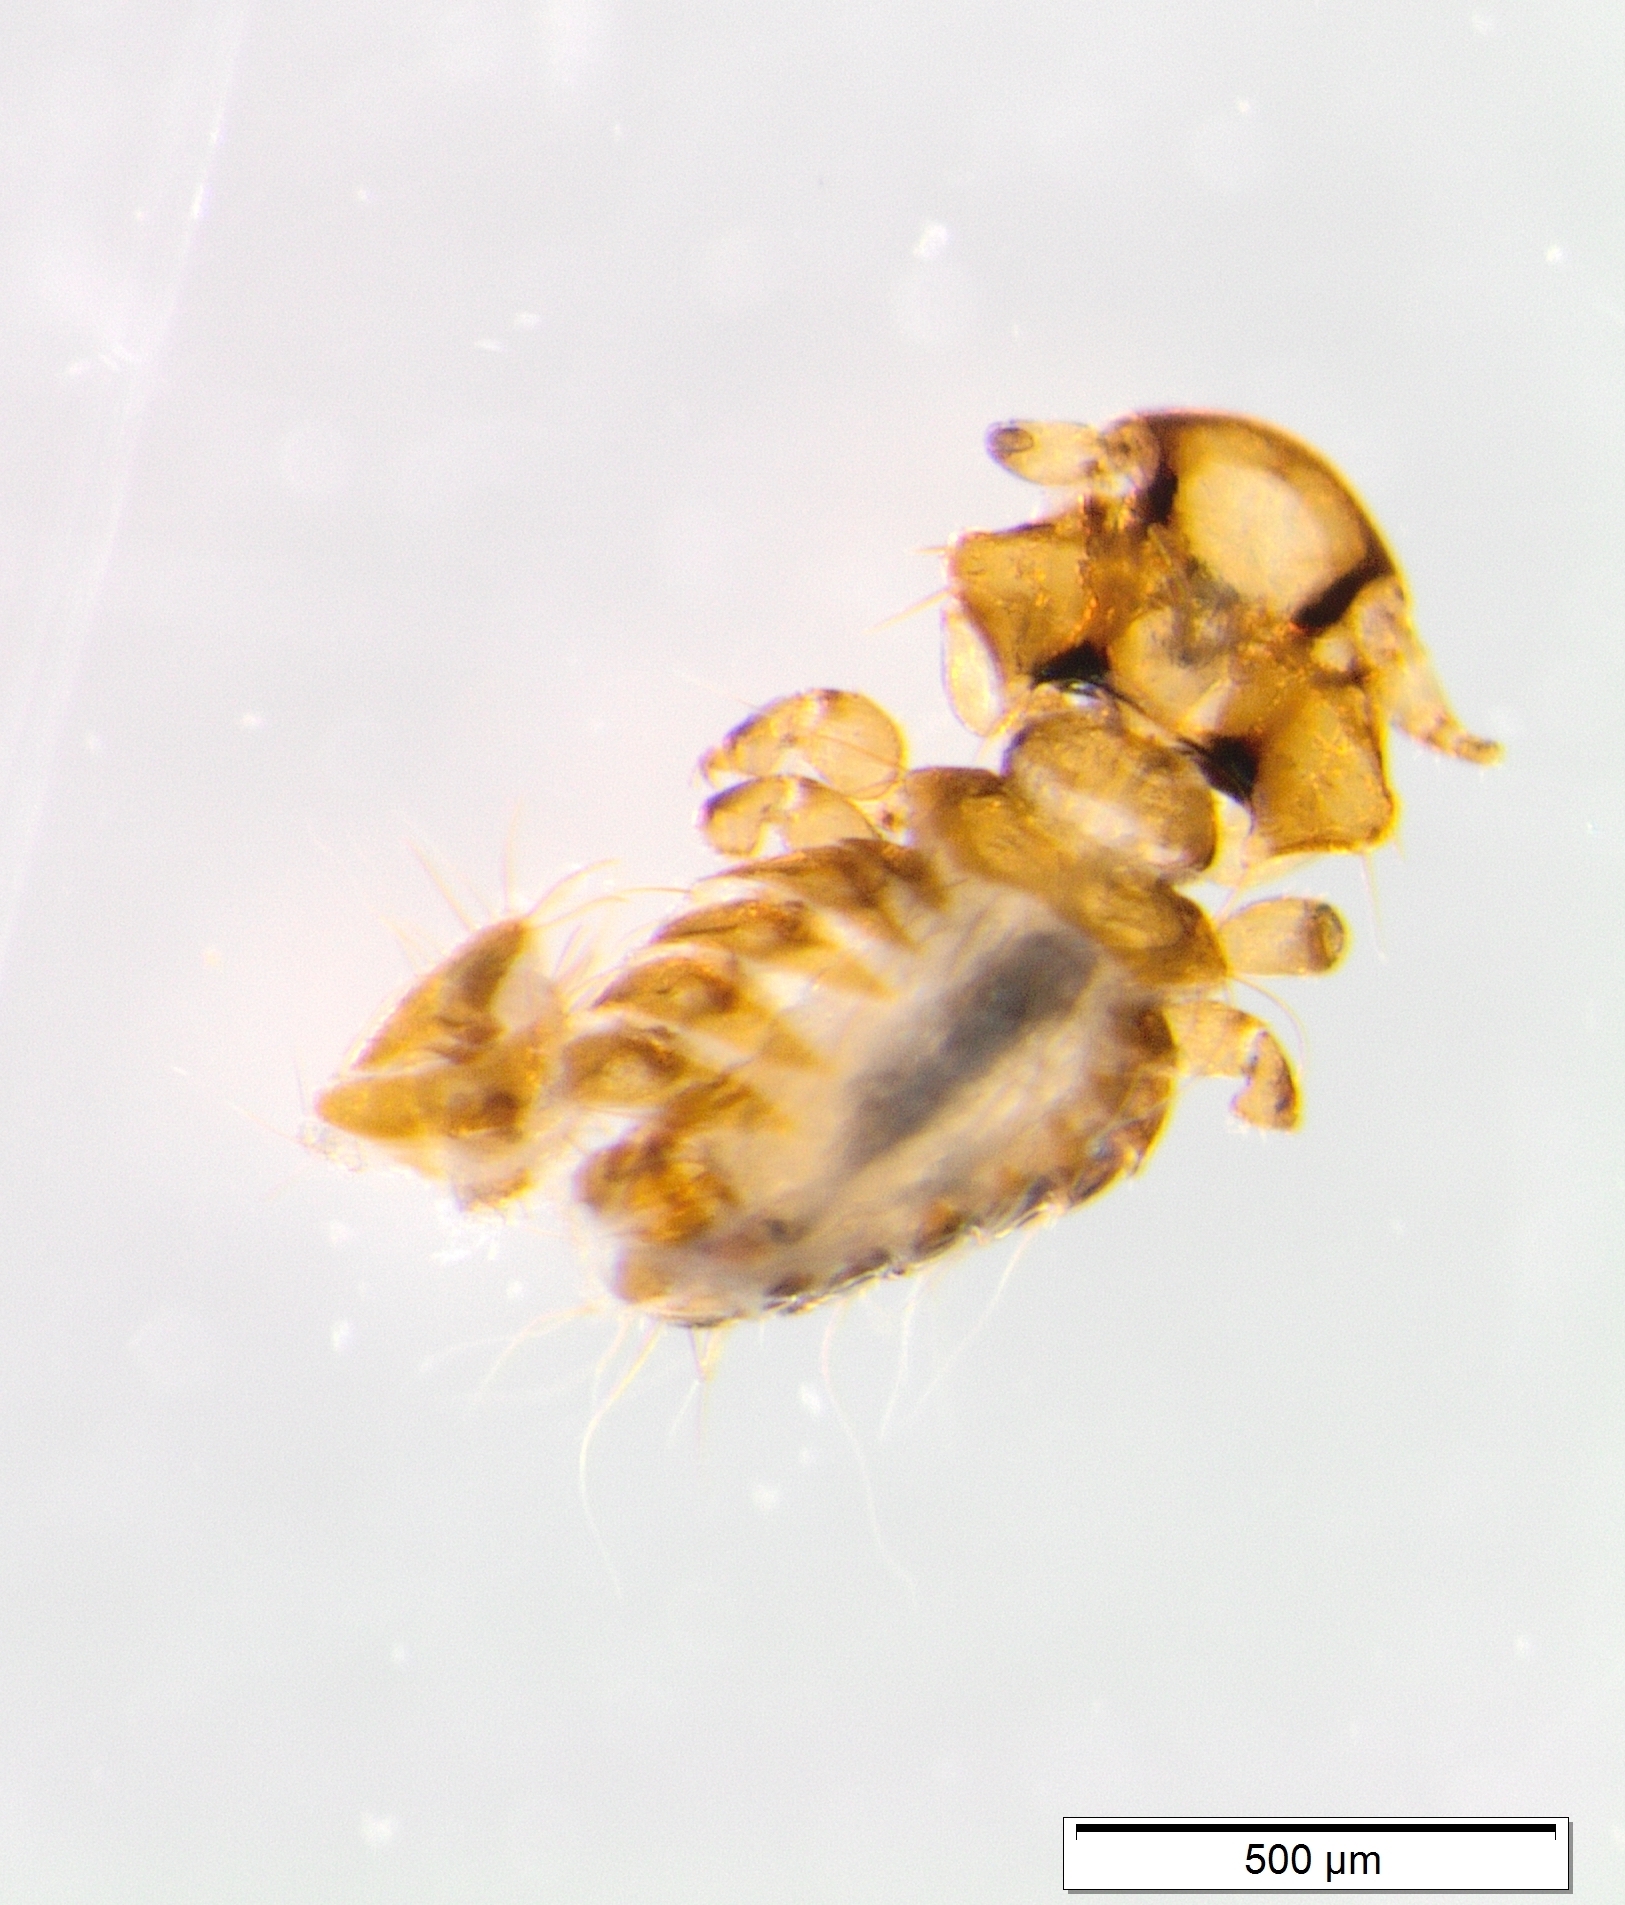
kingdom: Animalia
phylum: Arthropoda
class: Insecta
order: Psocodea
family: Philopteridae
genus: Austrogoniodes
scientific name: Austrogoniodes waterstoni
